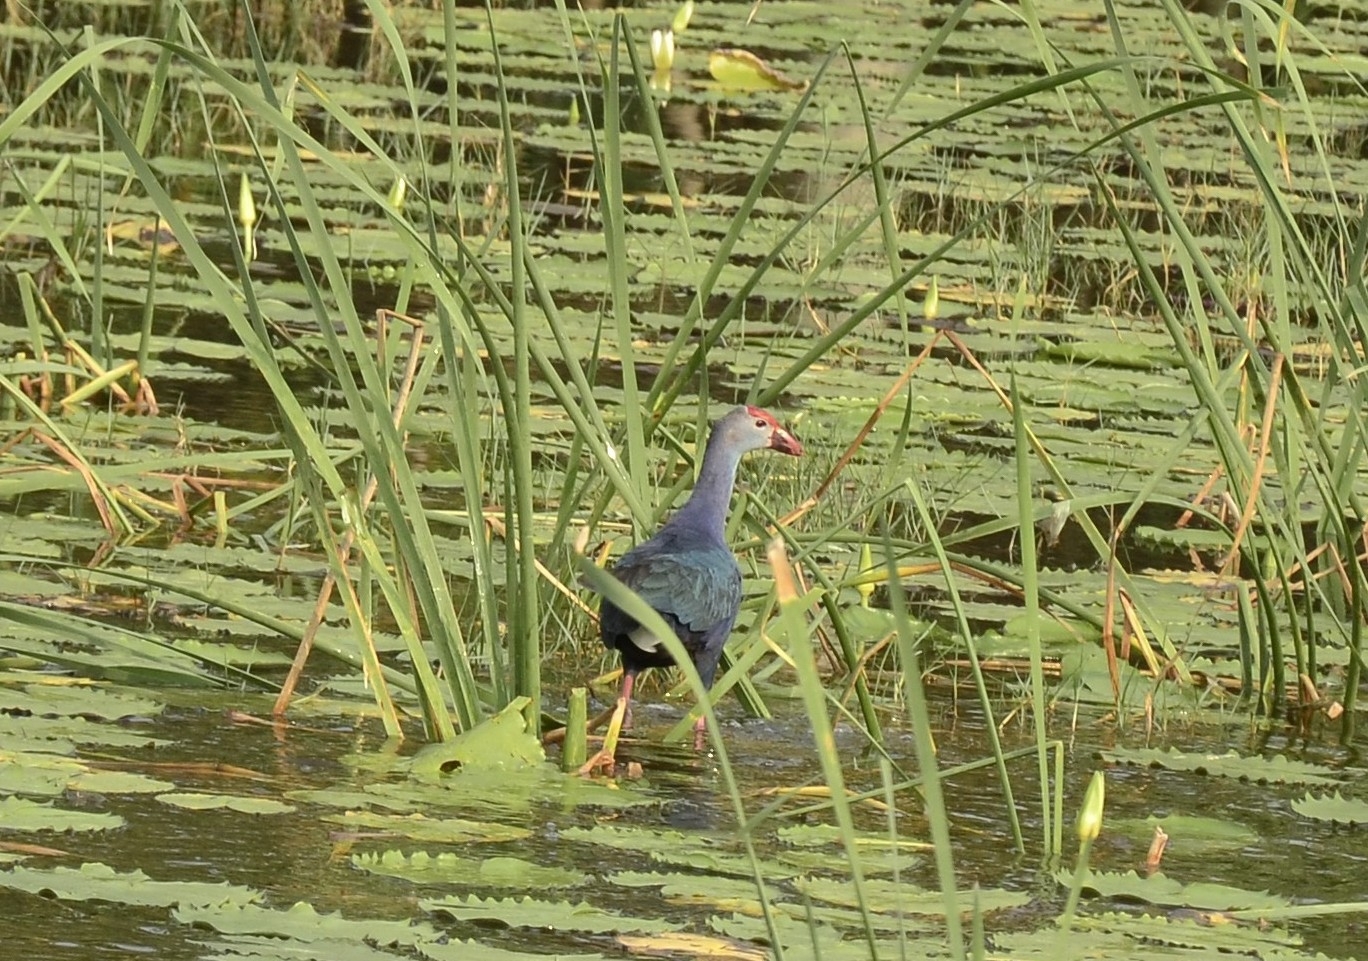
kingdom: Animalia
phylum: Chordata
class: Aves
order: Gruiformes
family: Rallidae
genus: Porphyrio
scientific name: Porphyrio porphyrio
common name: Purple swamphen
